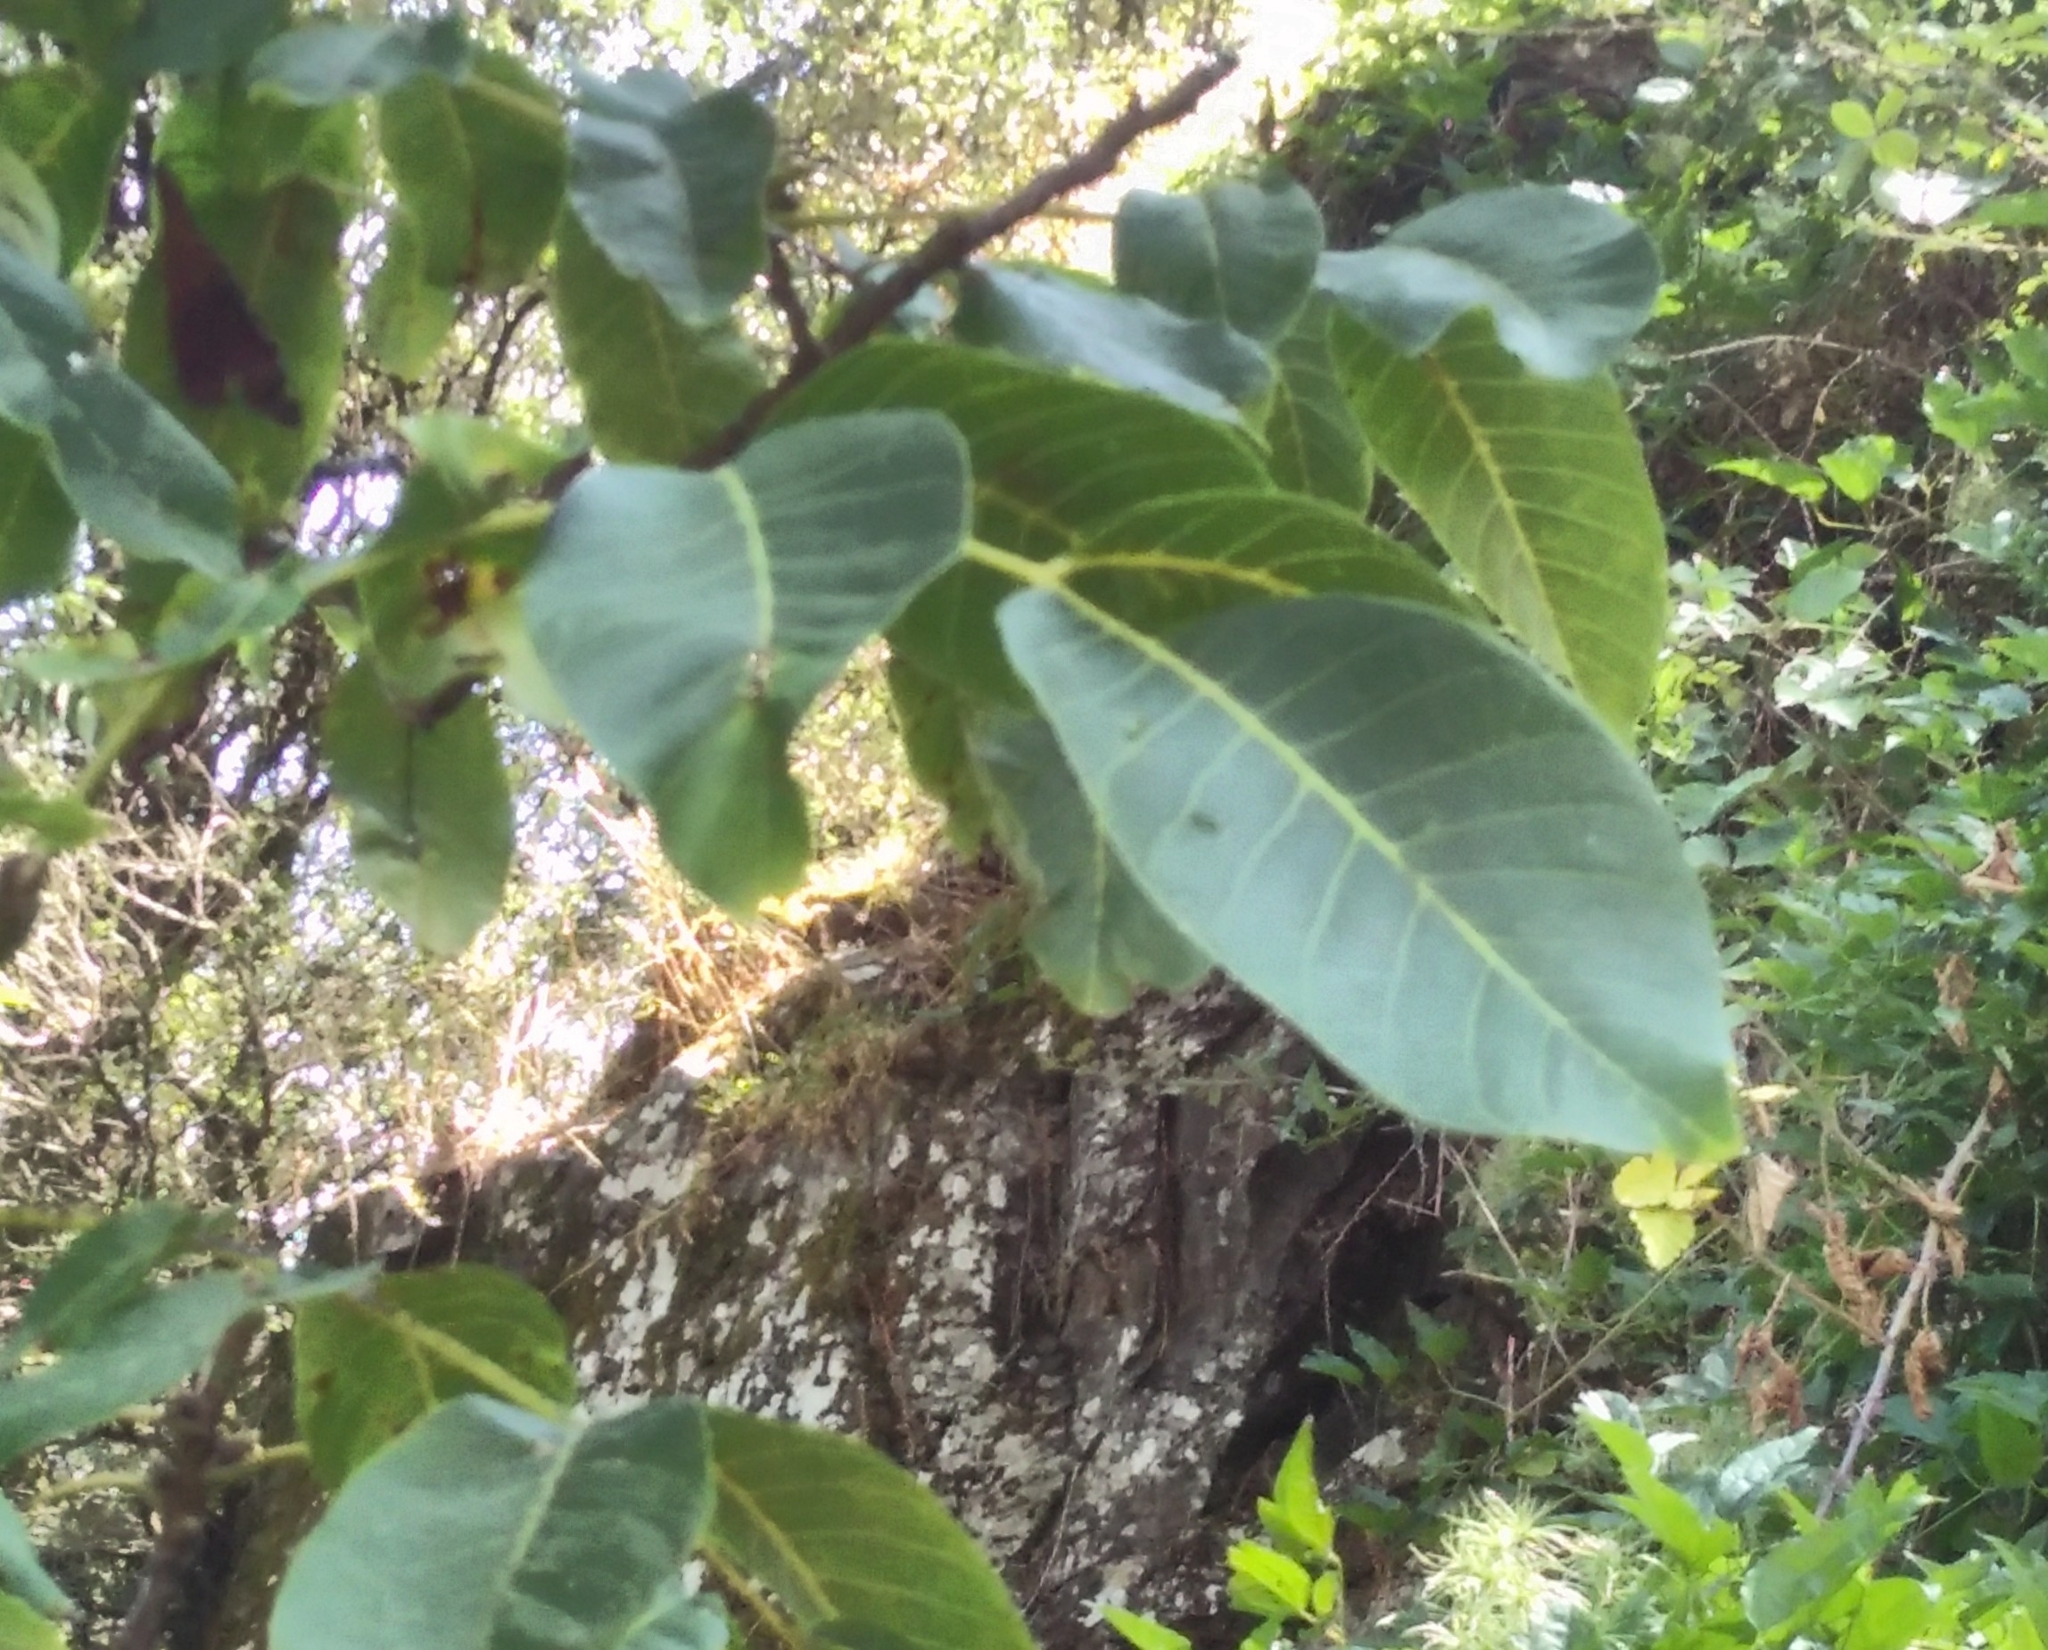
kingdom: Plantae
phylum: Tracheophyta
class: Magnoliopsida
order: Fagales
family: Juglandaceae
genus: Juglans
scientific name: Juglans regia
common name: Walnut
